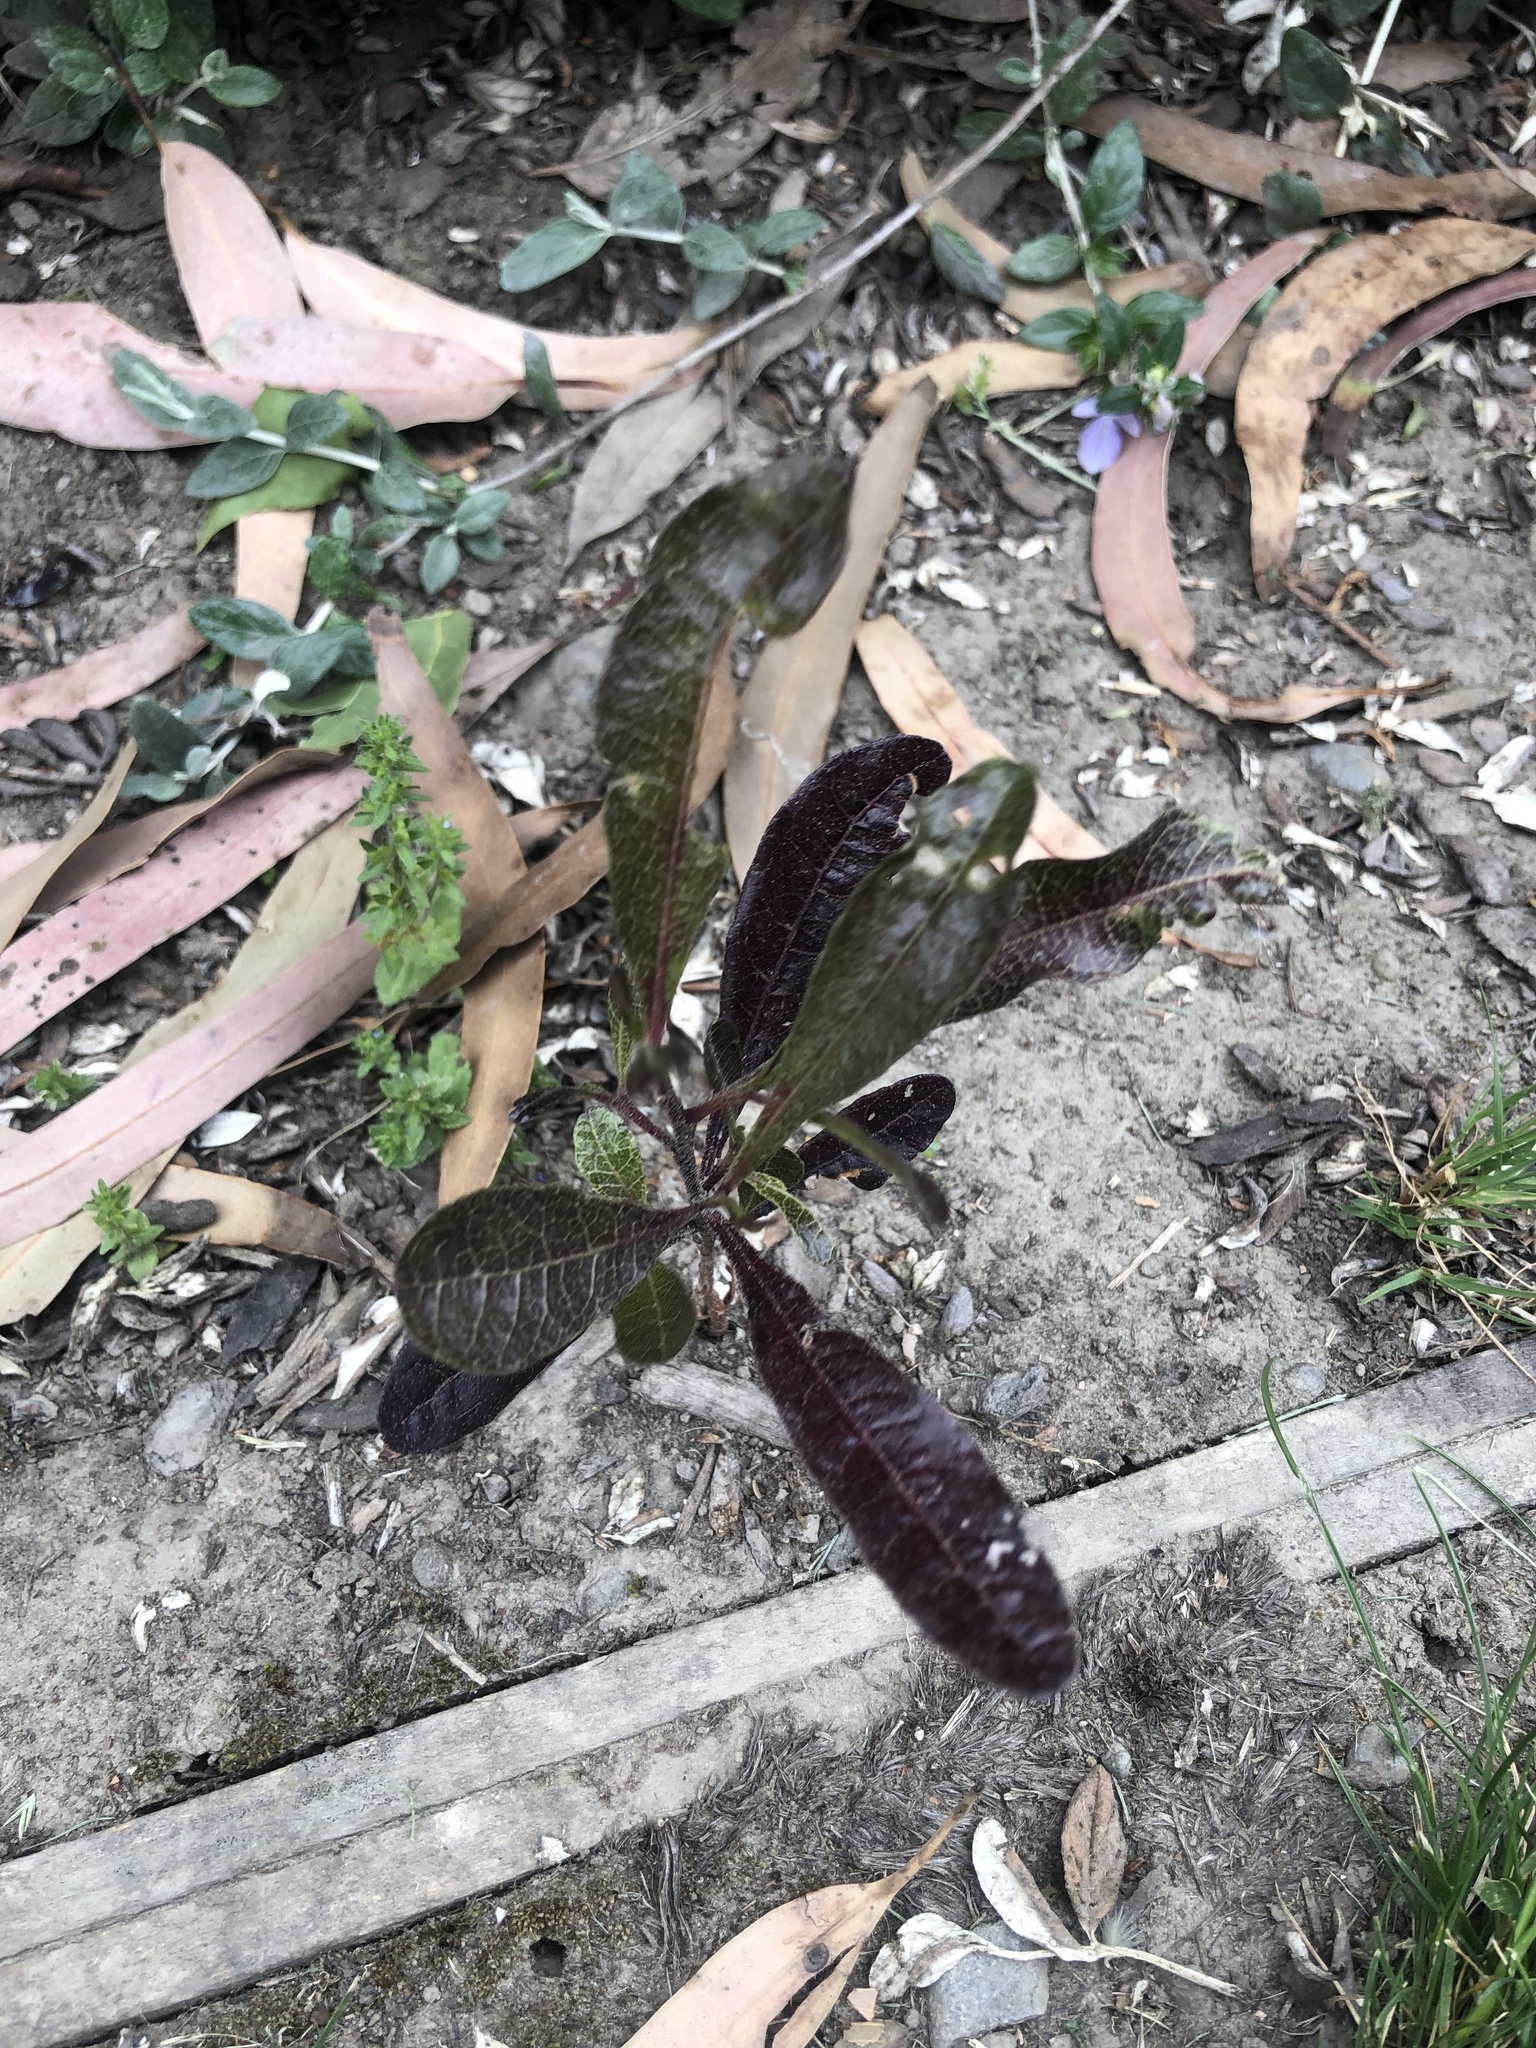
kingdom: Plantae
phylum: Tracheophyta
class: Magnoliopsida
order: Sapindales
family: Sapindaceae
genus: Dodonaea
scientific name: Dodonaea viscosa
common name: Hopbush
